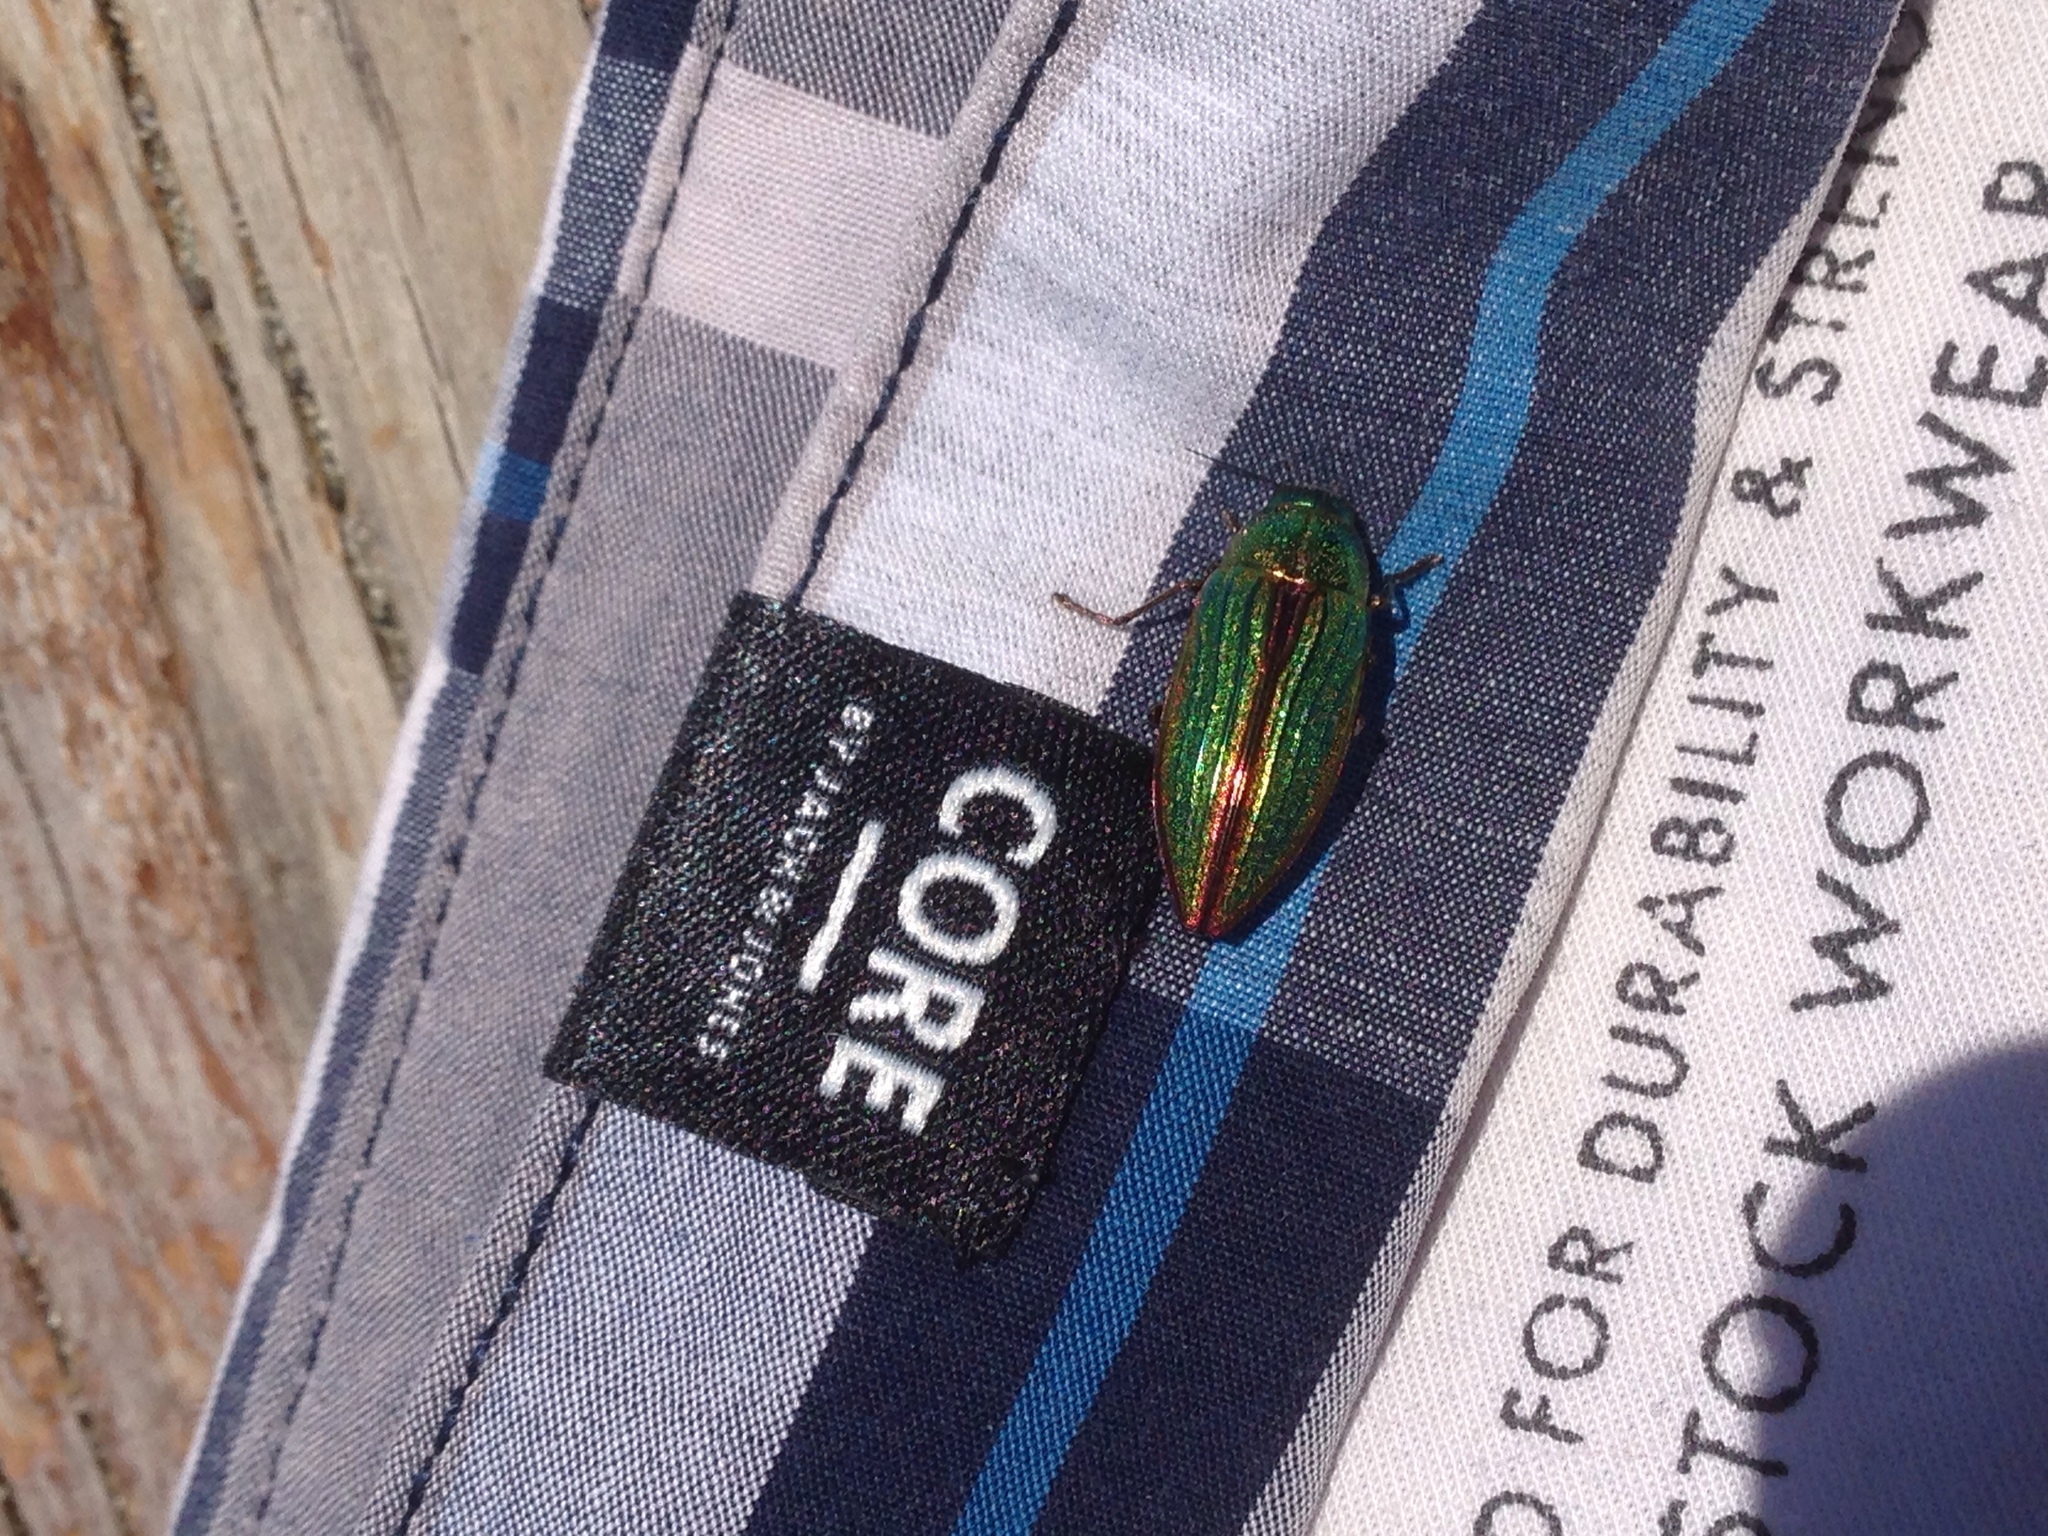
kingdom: Animalia
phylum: Arthropoda
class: Insecta
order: Coleoptera
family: Buprestidae
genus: Buprestis
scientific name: Buprestis aurulenta
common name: Golden buprestid
